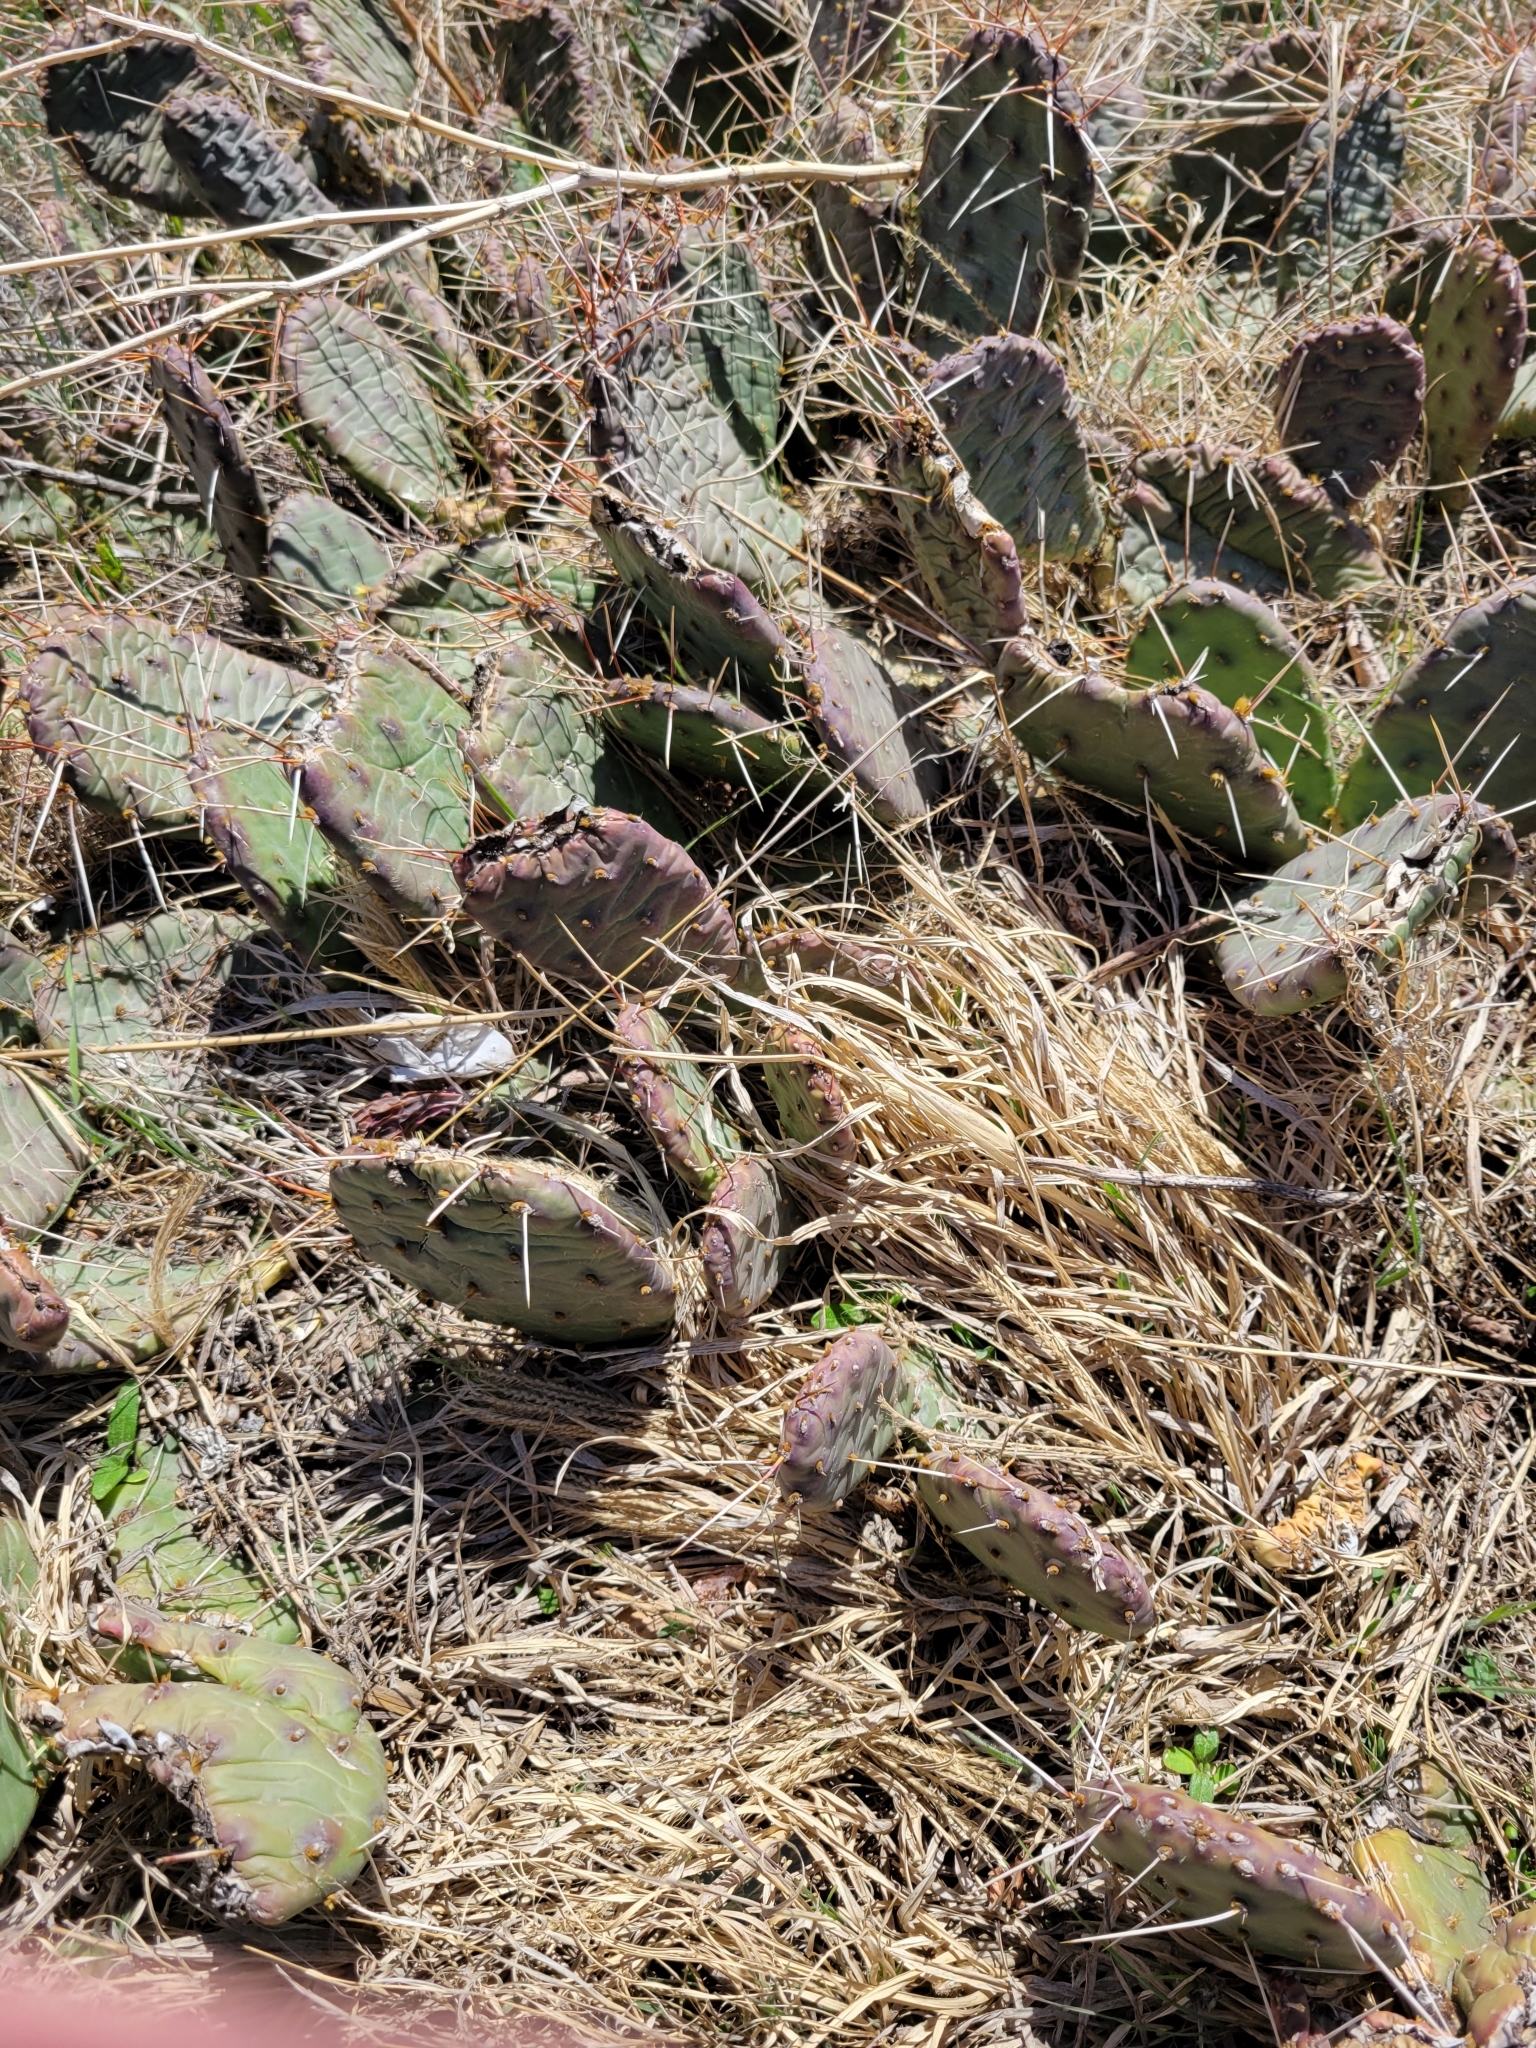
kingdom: Plantae
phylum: Tracheophyta
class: Magnoliopsida
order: Caryophyllales
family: Cactaceae
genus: Opuntia
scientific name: Opuntia macrorhiza
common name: Grassland pricklypear
